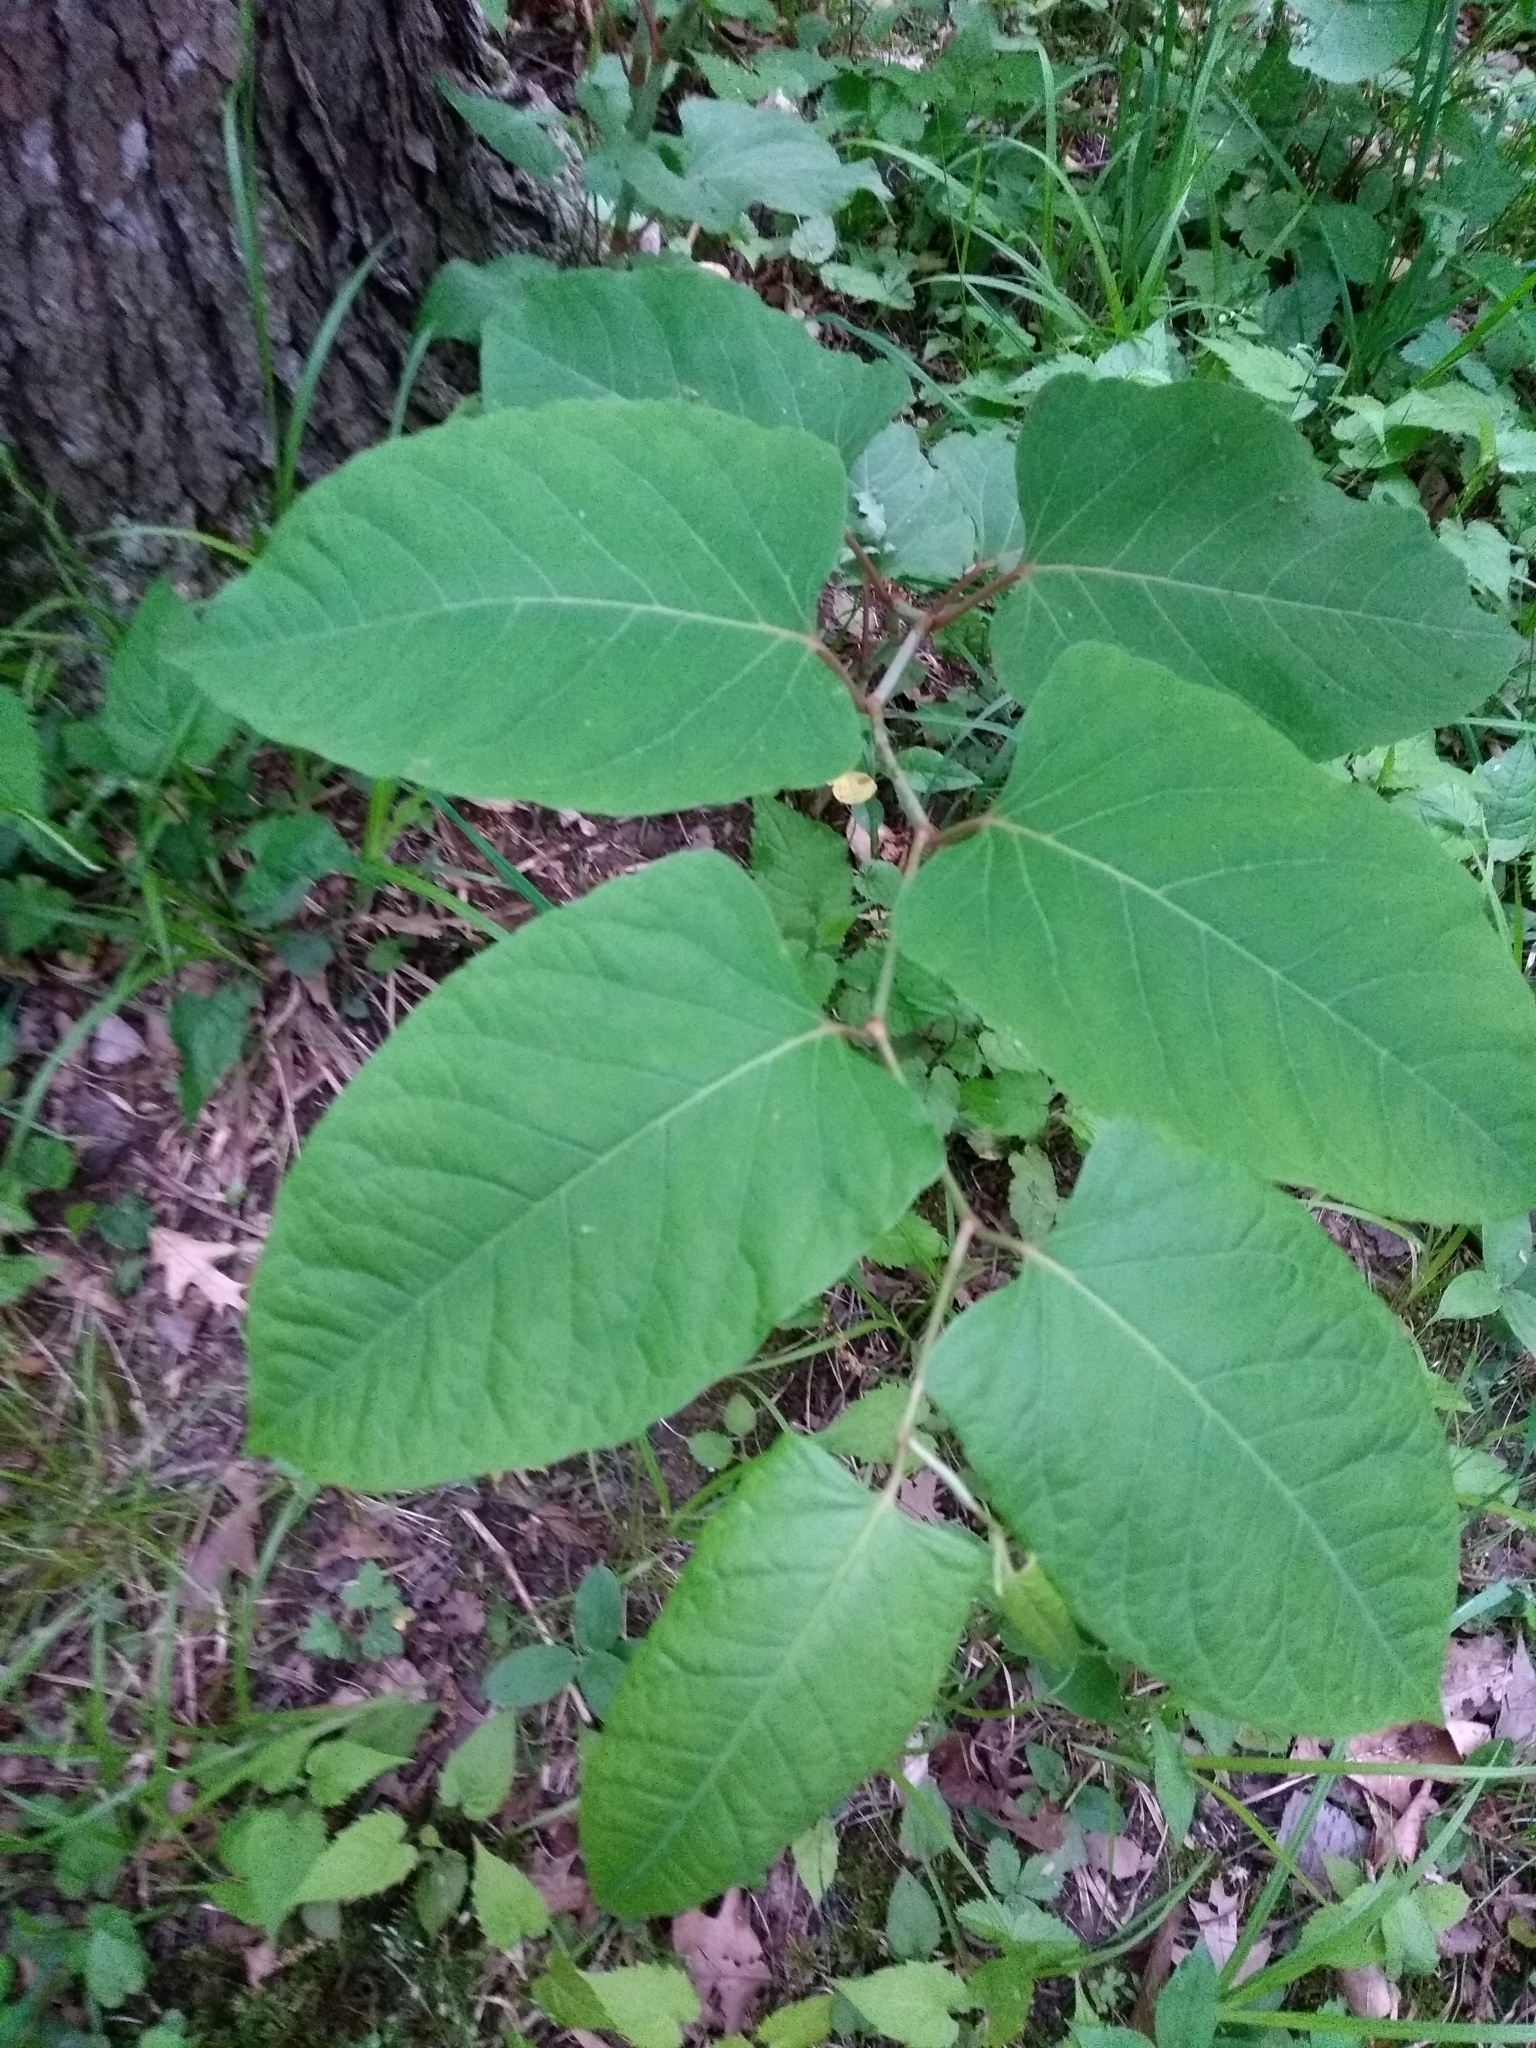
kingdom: Plantae
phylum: Tracheophyta
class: Magnoliopsida
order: Caryophyllales
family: Polygonaceae
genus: Reynoutria
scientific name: Reynoutria japonica
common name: Japanese knotweed
